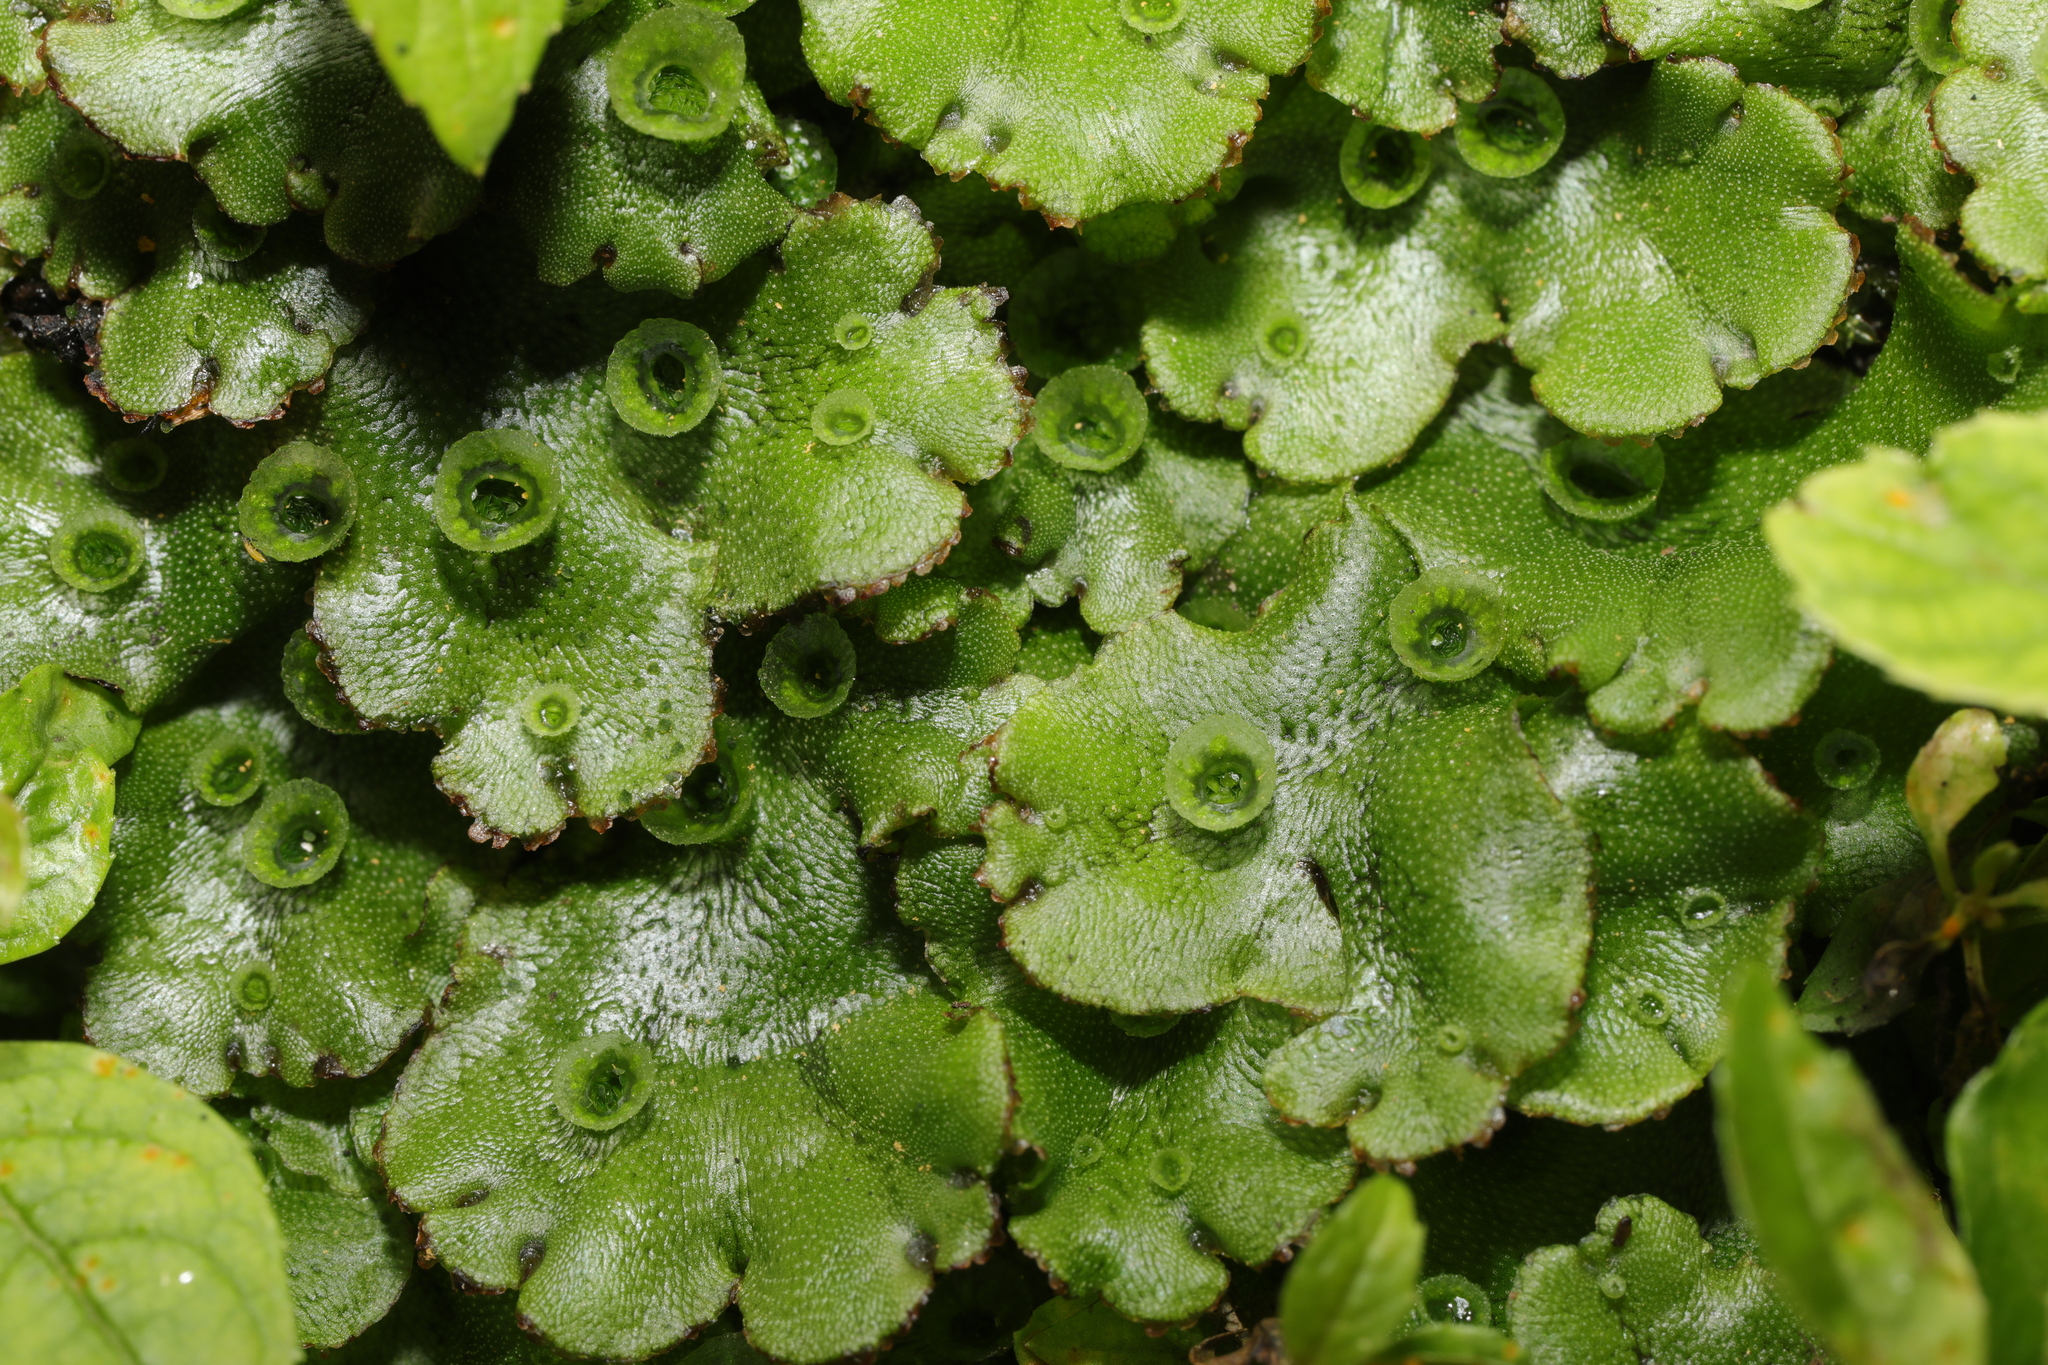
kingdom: Plantae
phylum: Marchantiophyta
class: Marchantiopsida
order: Marchantiales
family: Marchantiaceae
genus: Marchantia
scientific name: Marchantia polymorpha
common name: Common liverwort
